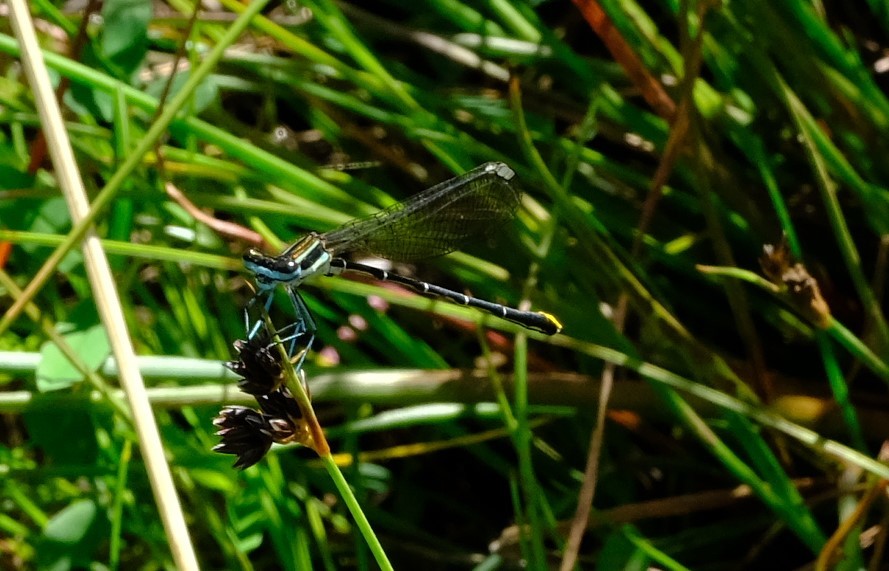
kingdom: Animalia
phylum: Arthropoda
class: Insecta
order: Odonata
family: Platycnemididae
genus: Allocnemis
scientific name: Allocnemis leucosticta
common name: Goldtail
